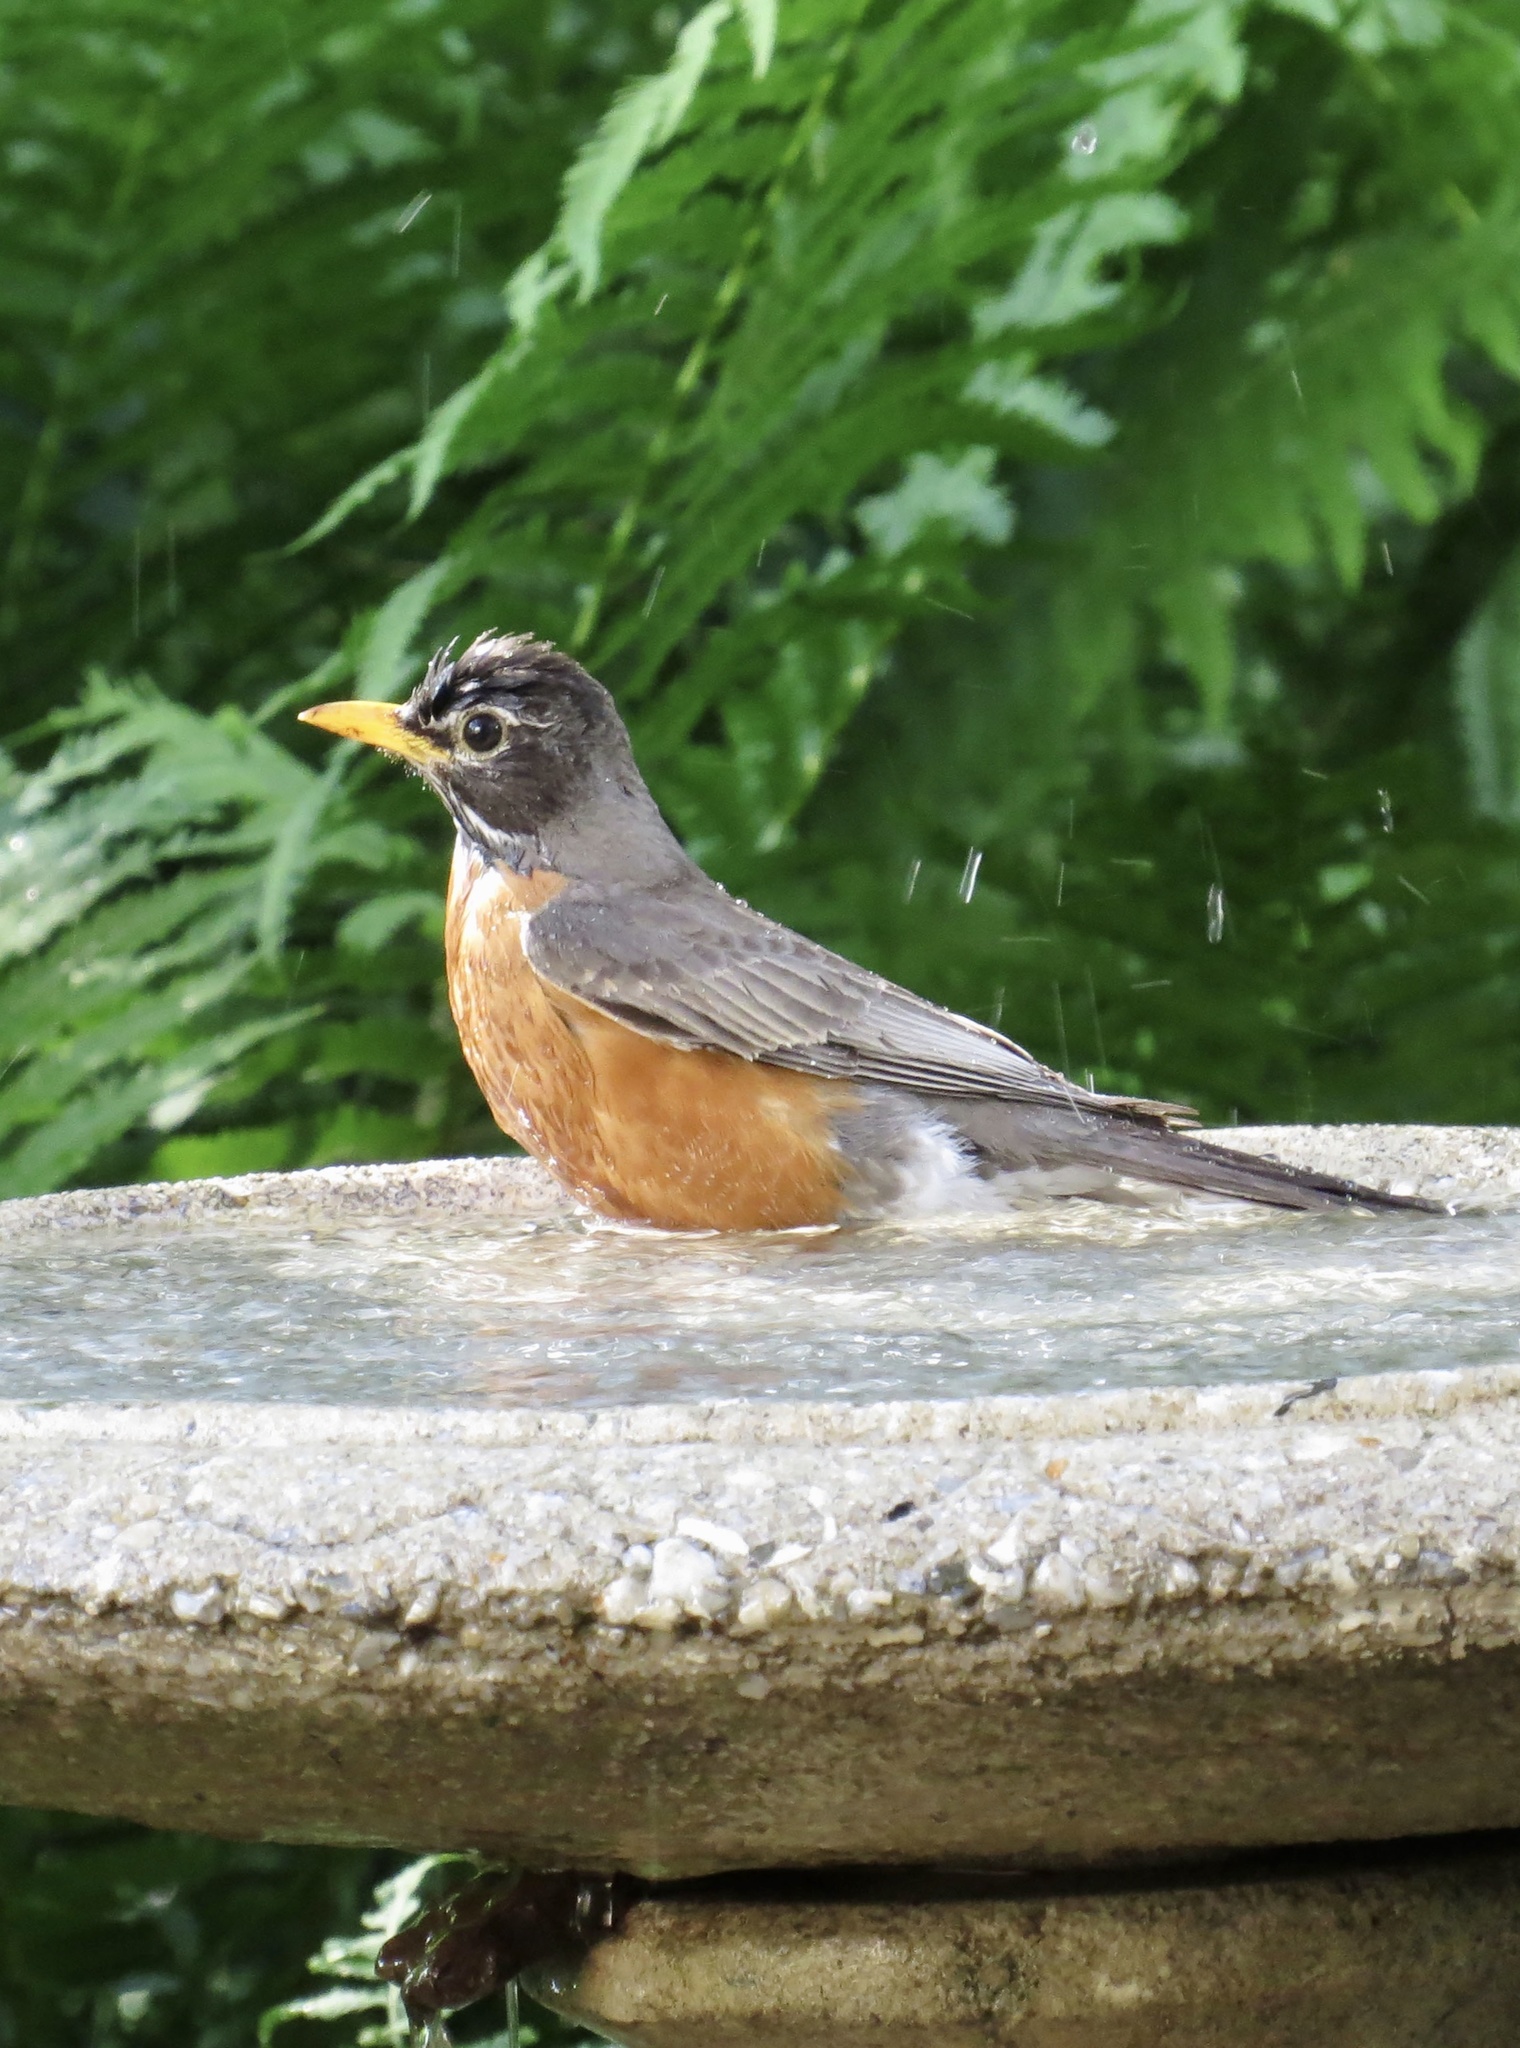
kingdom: Animalia
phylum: Chordata
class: Aves
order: Passeriformes
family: Turdidae
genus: Turdus
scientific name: Turdus migratorius
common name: American robin
